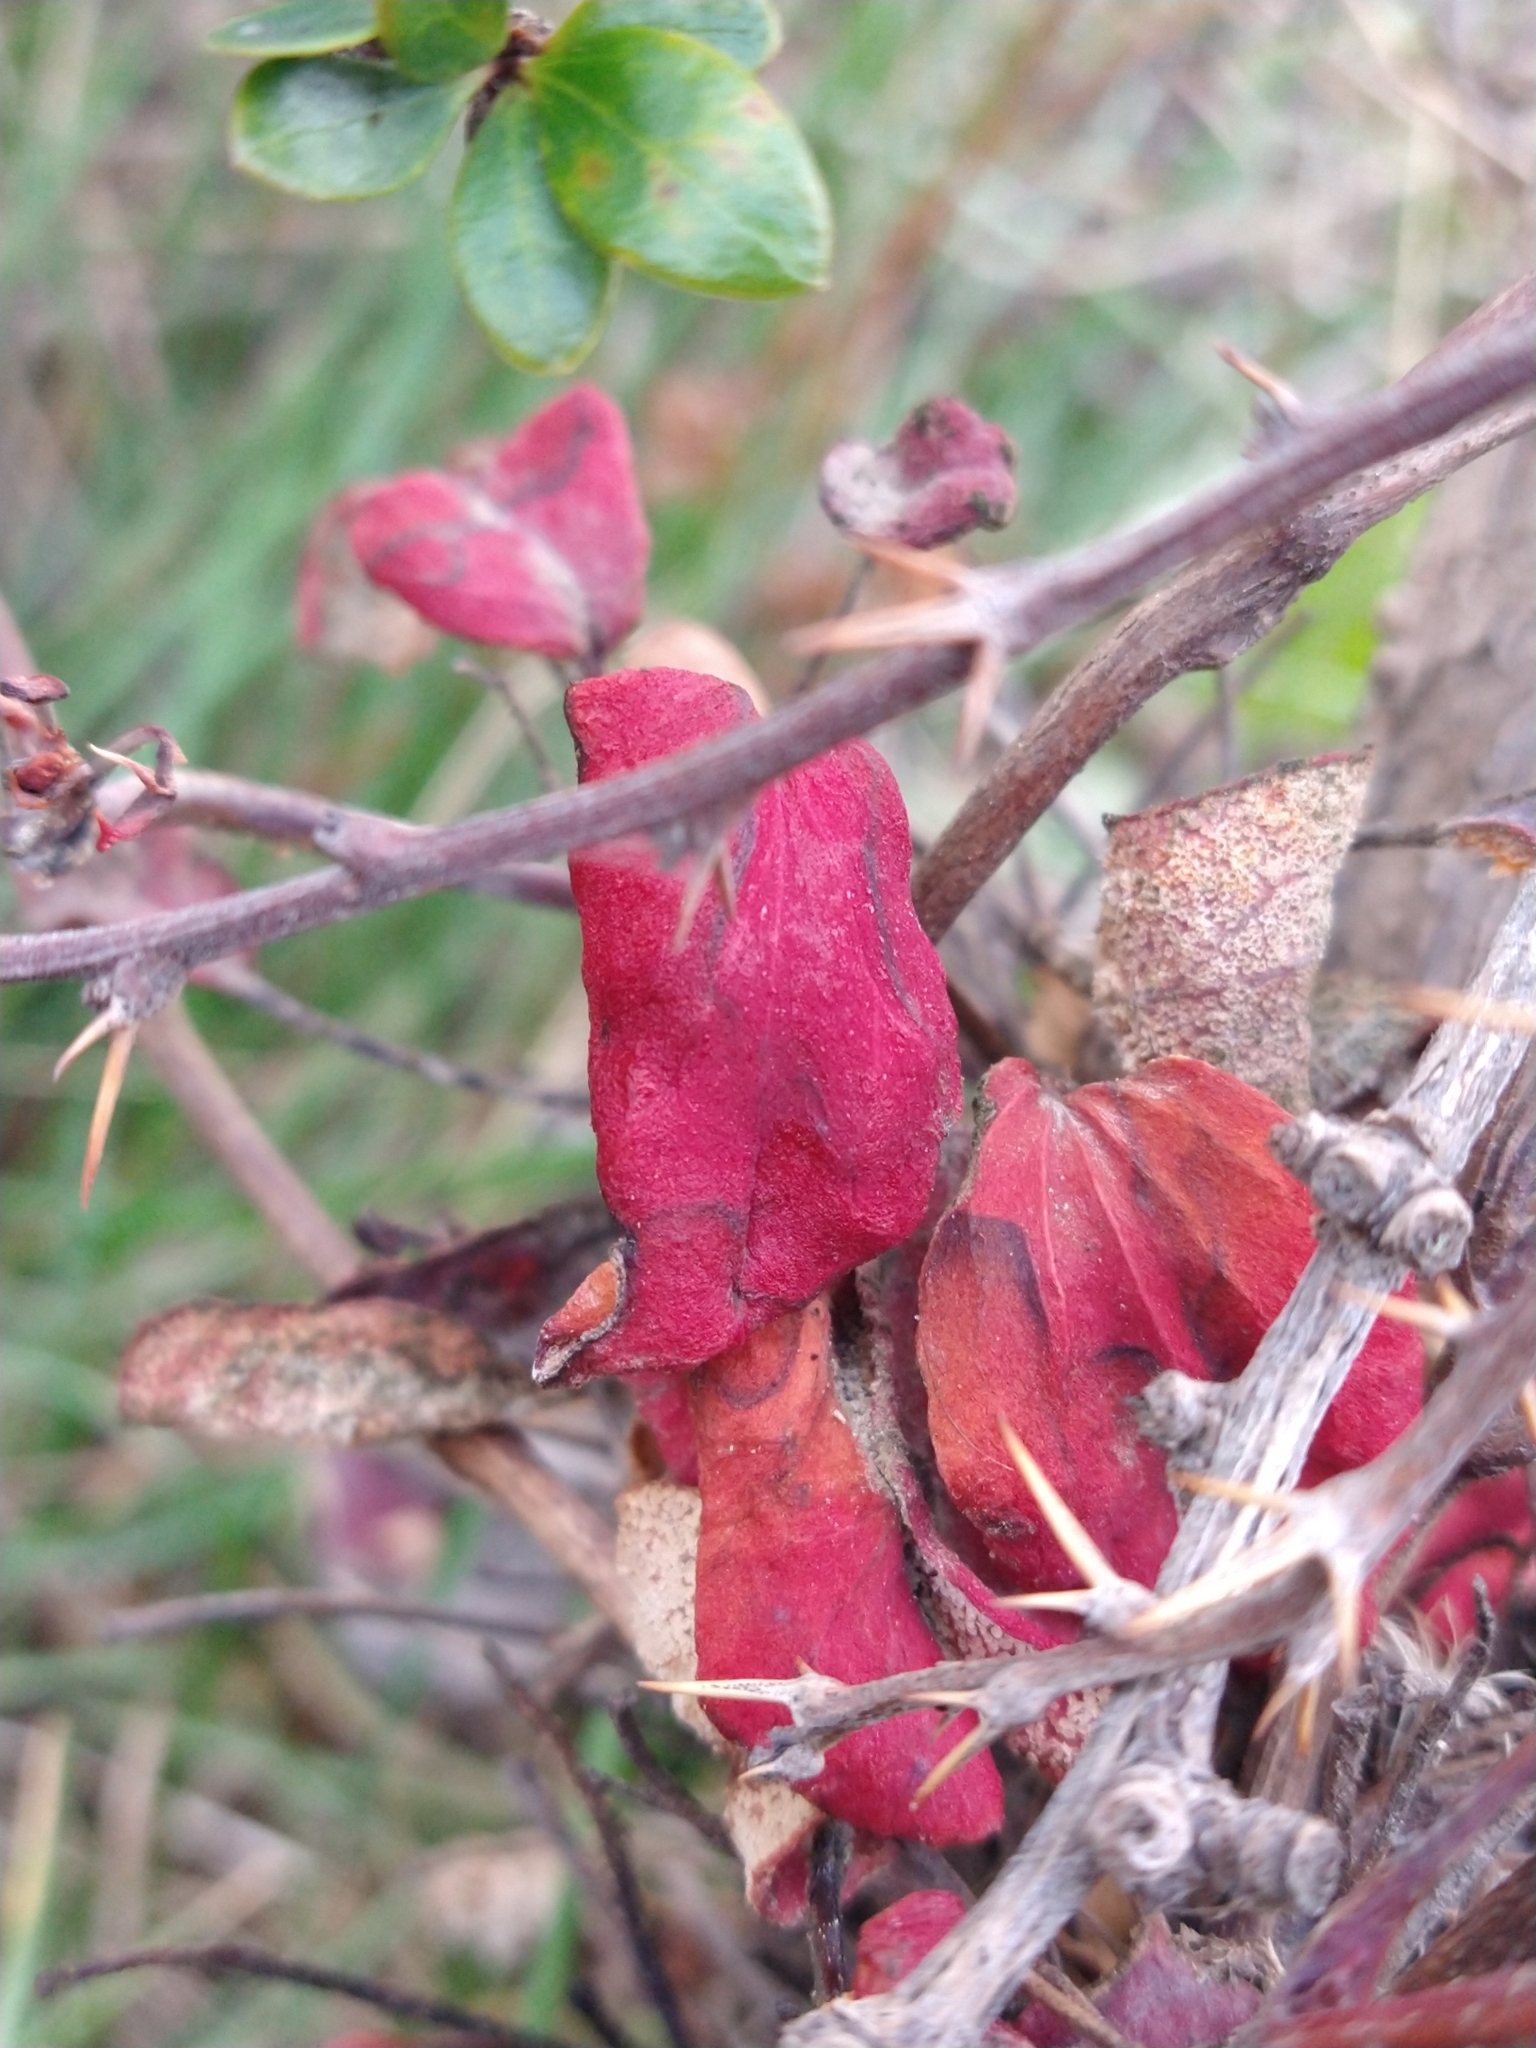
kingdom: Fungi
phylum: Basidiomycota
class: Pucciniomycetes
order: Pucciniales
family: Pucciniaceae
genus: Puccinia
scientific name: Puccinia magellanica
